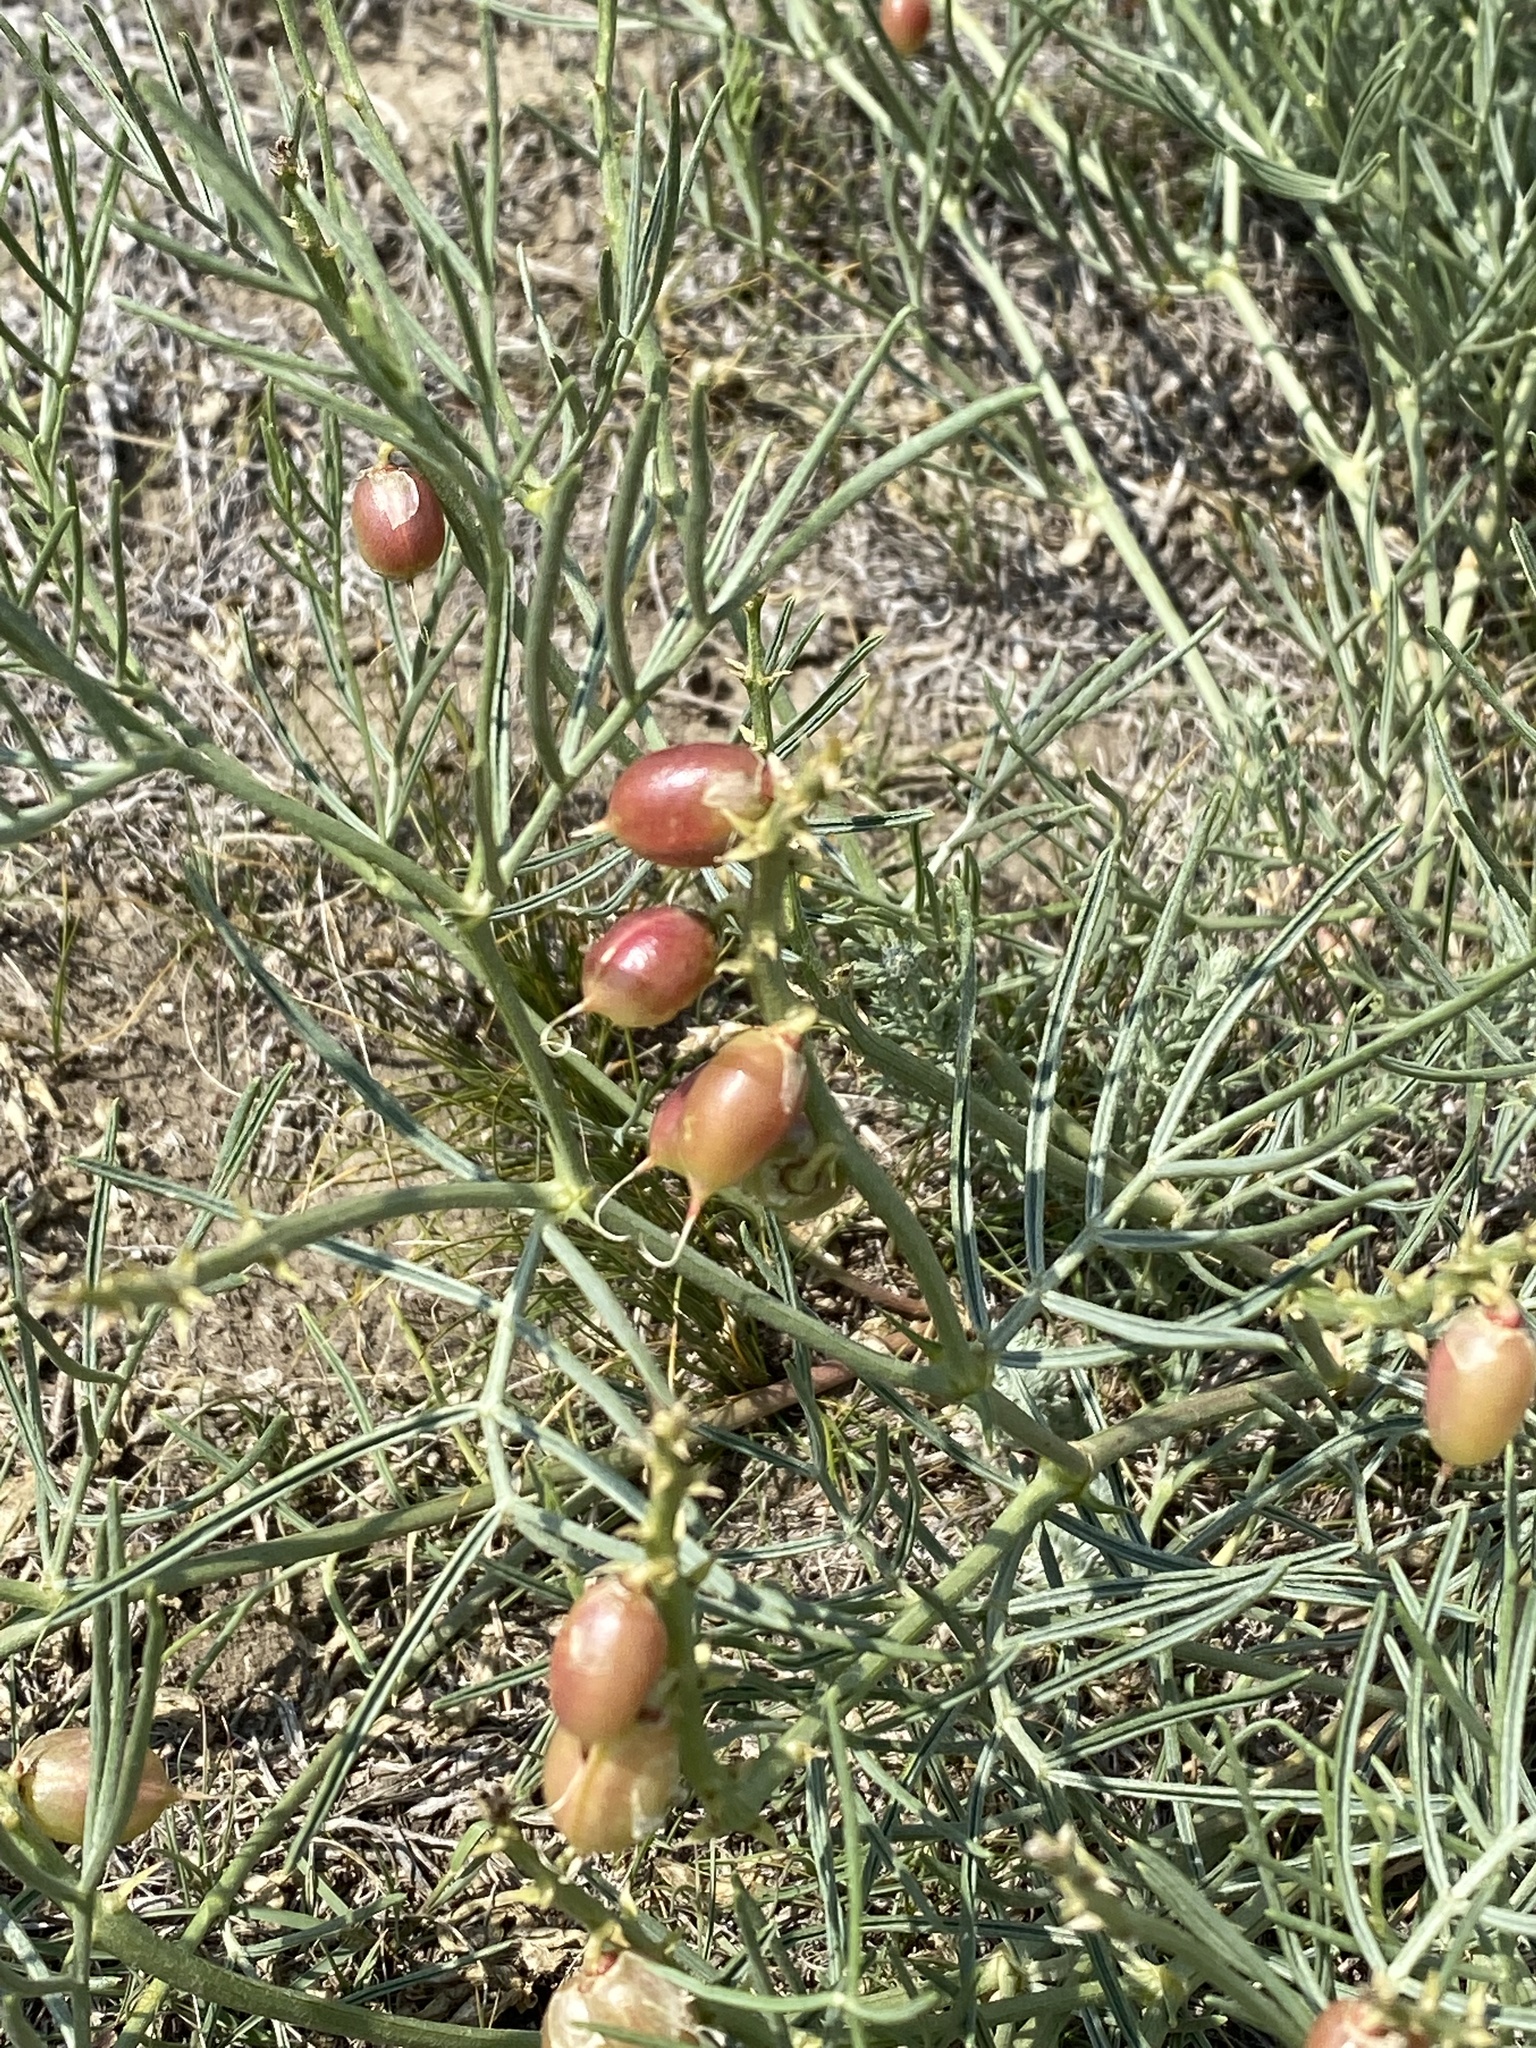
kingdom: Plantae
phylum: Tracheophyta
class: Magnoliopsida
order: Fabales
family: Fabaceae
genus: Astragalus
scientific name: Astragalus pectinatus
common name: Tine-leaf milk-vetch
